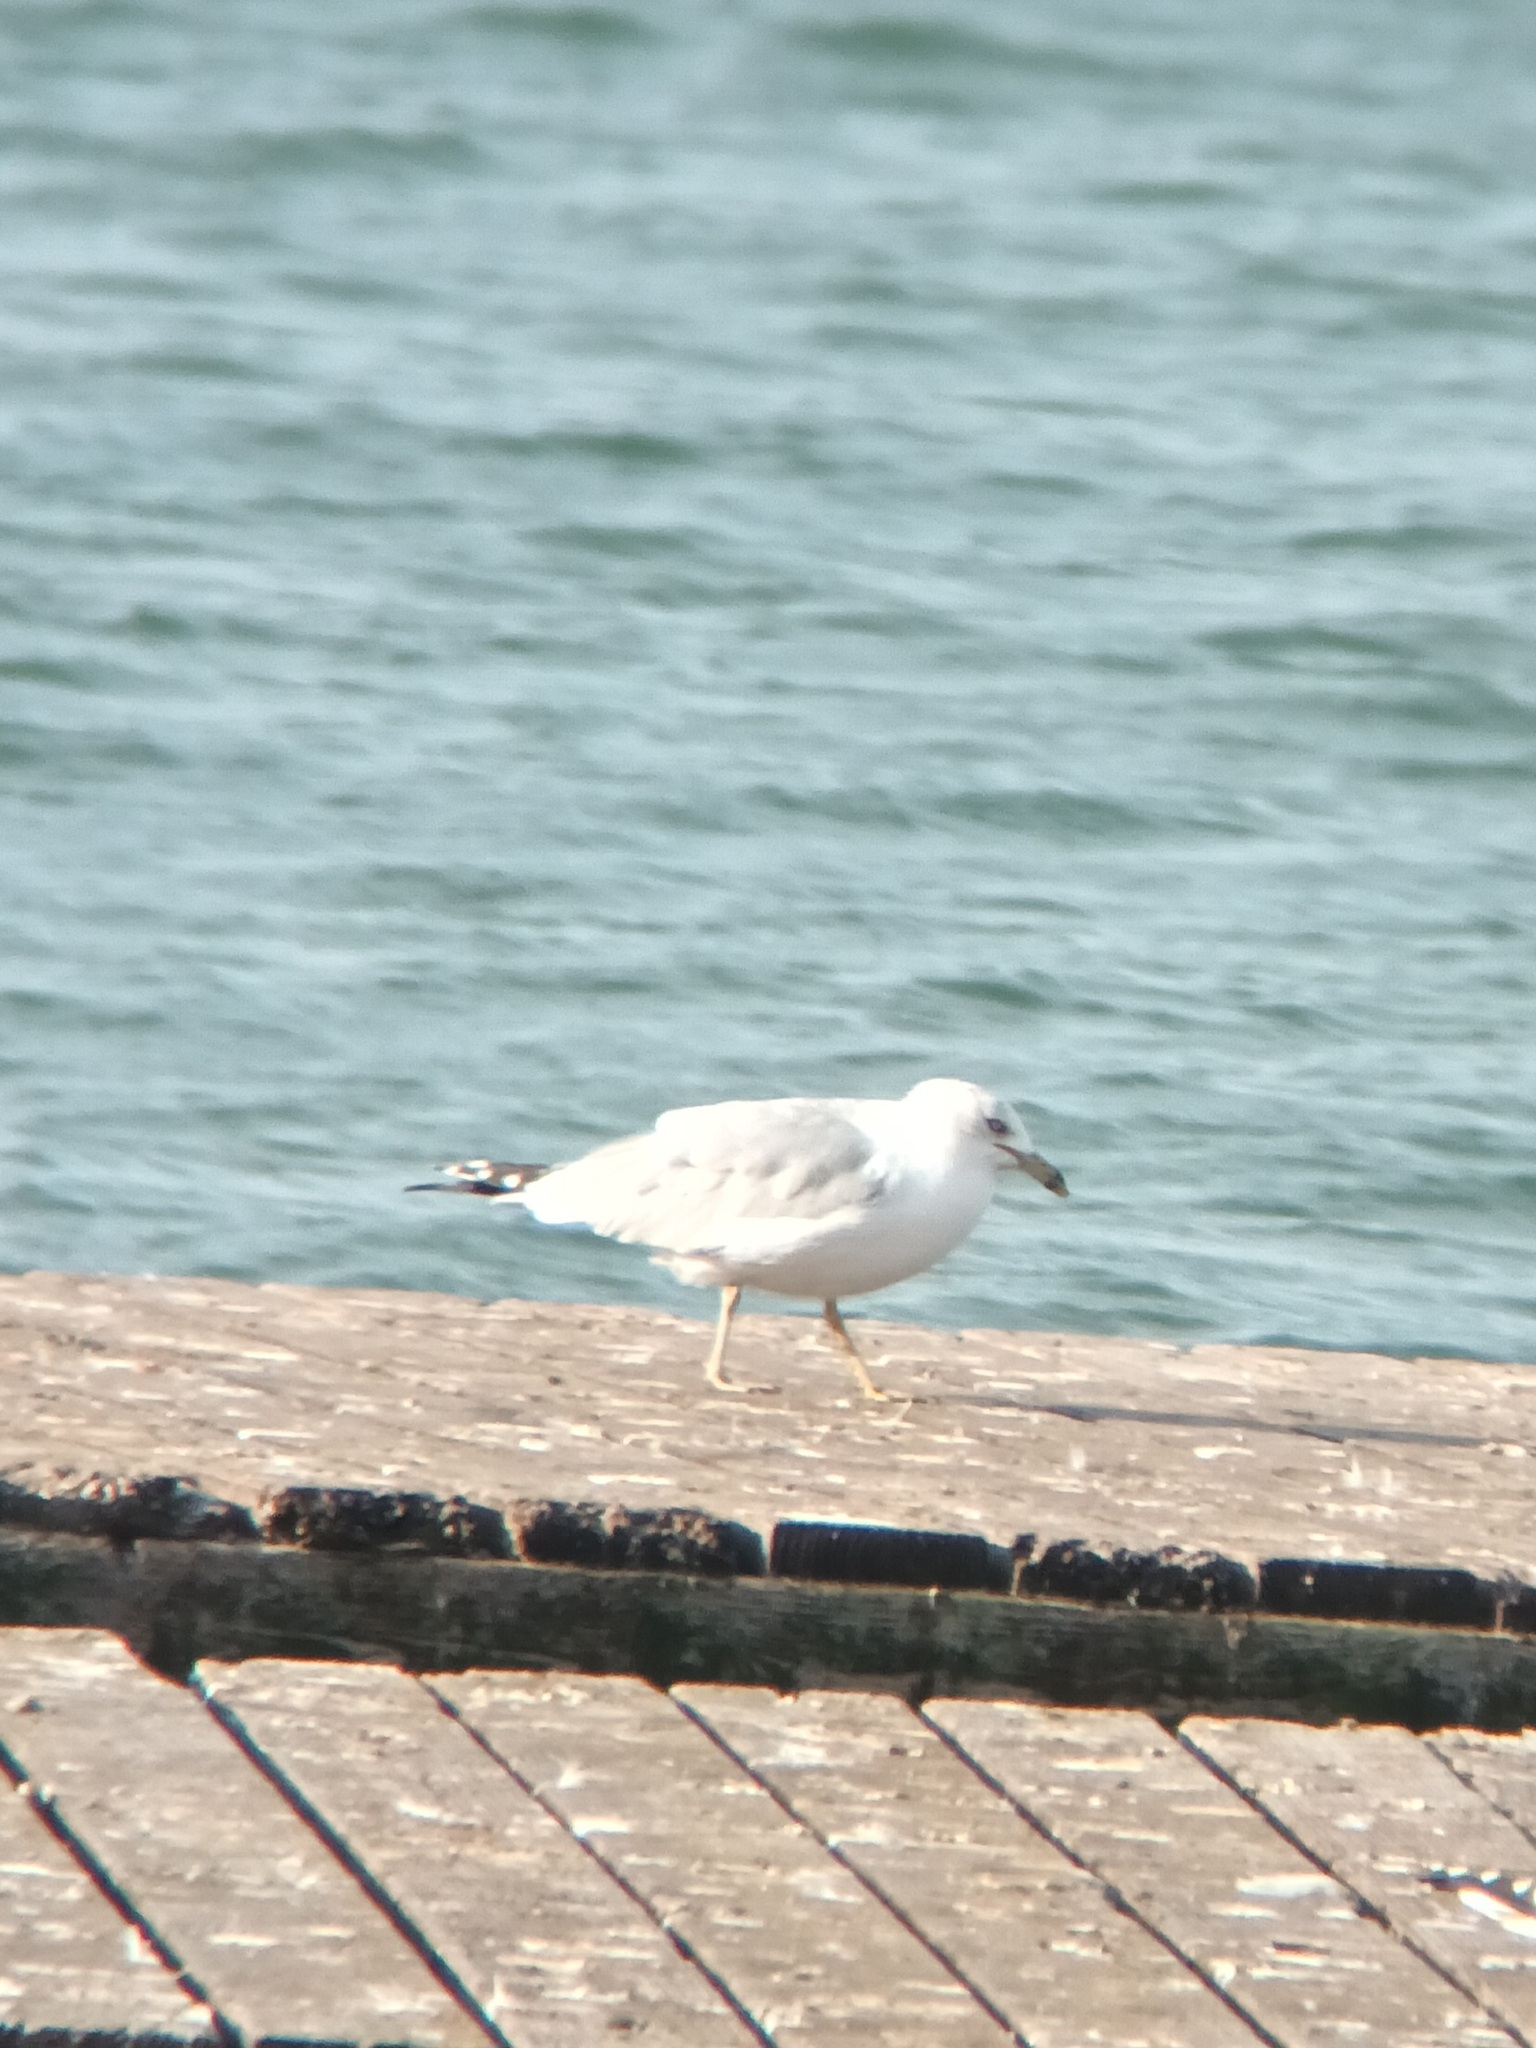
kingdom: Animalia
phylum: Chordata
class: Aves
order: Charadriiformes
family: Laridae
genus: Larus
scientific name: Larus delawarensis
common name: Ring-billed gull
